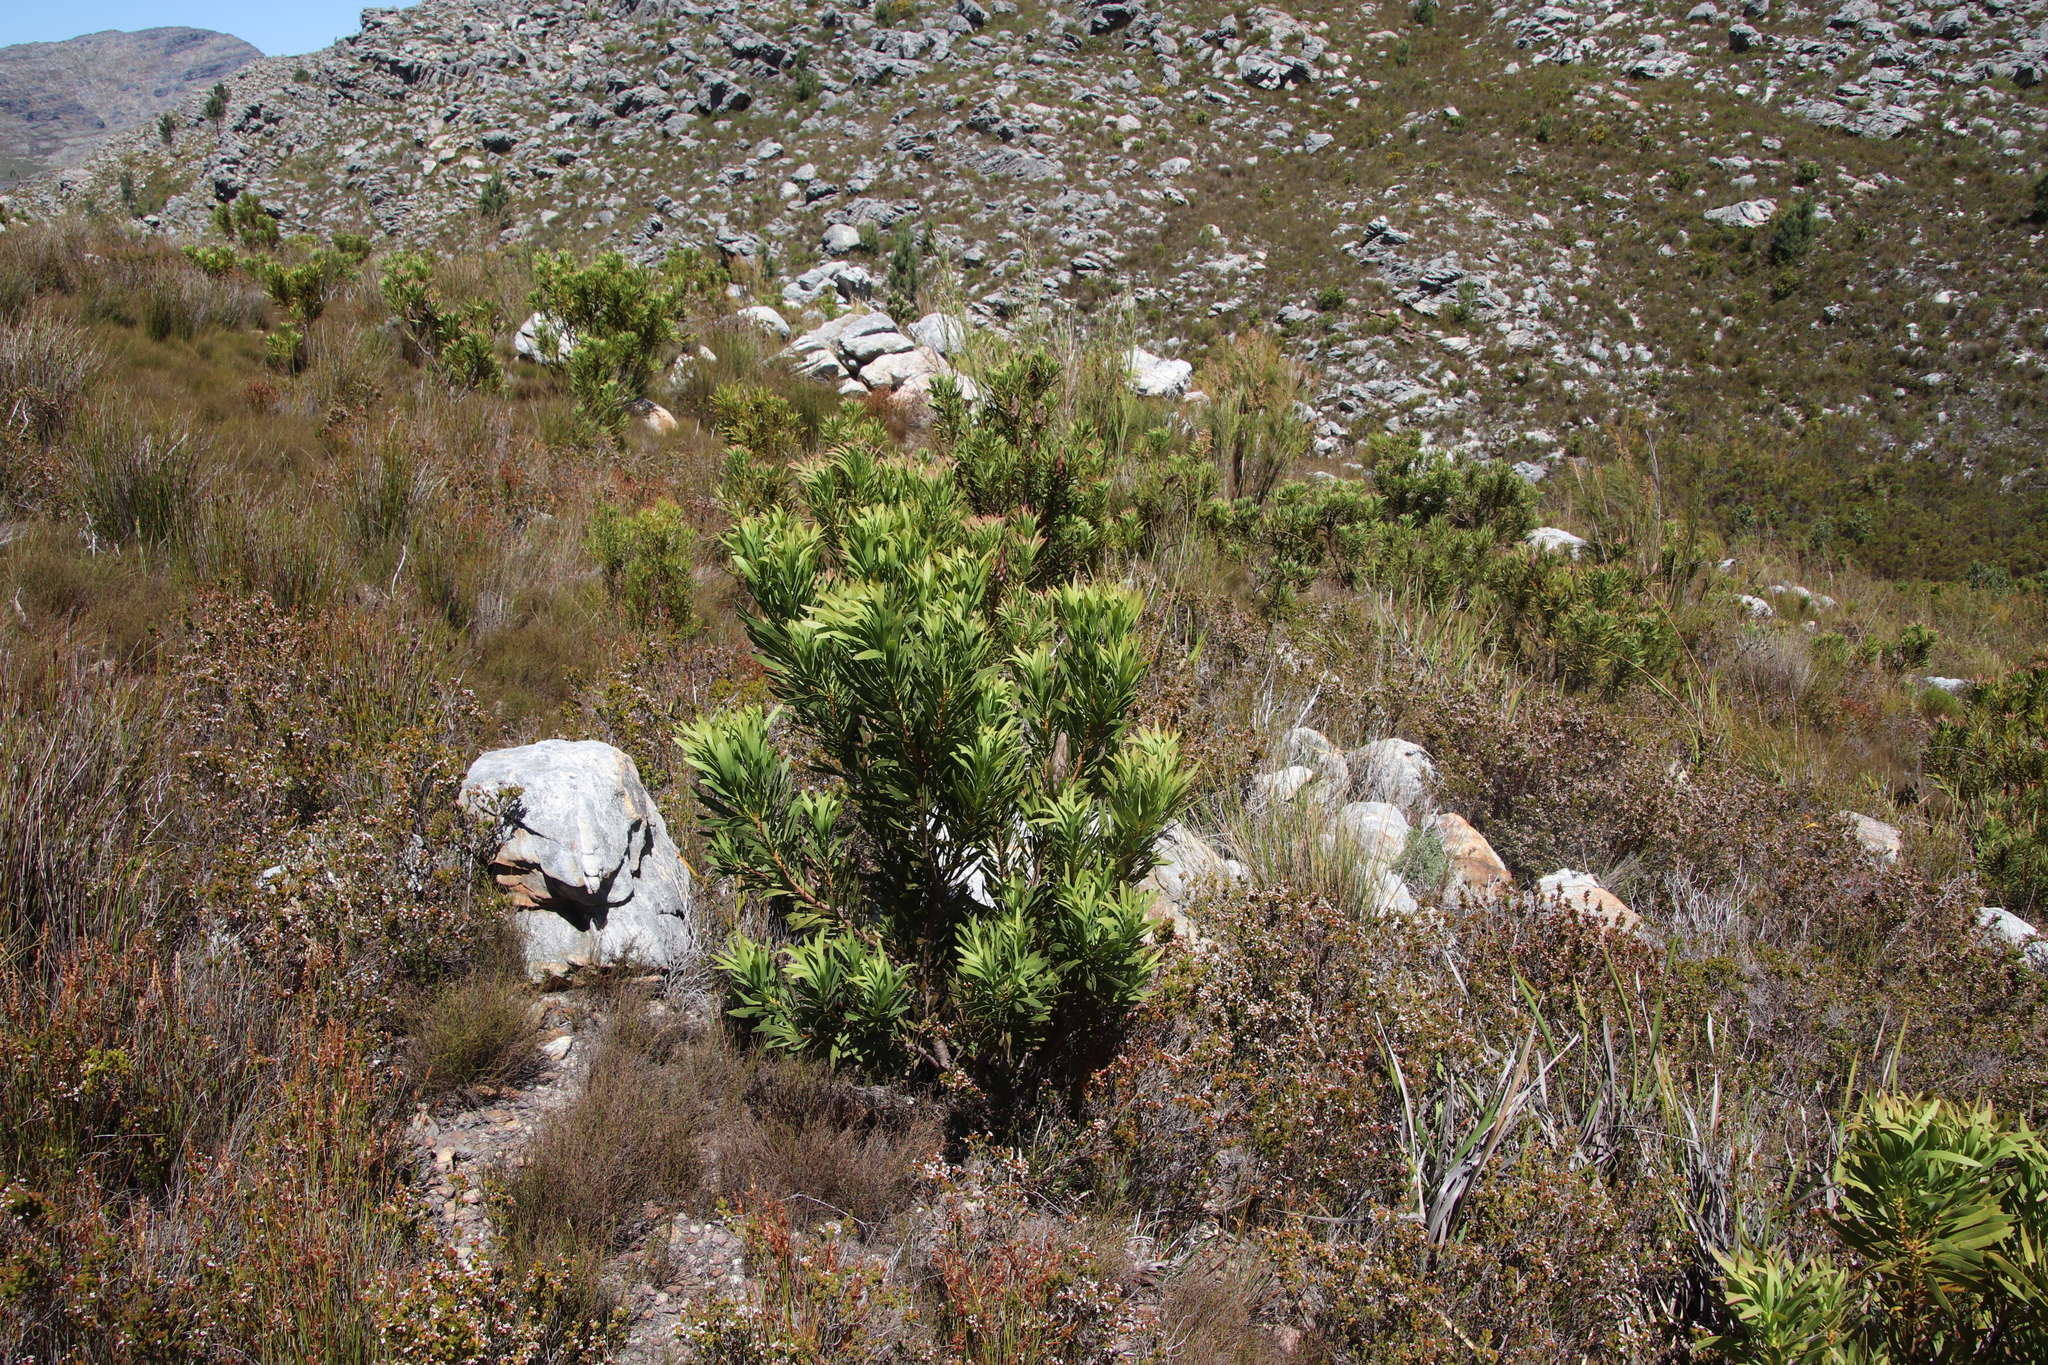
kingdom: Plantae
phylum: Tracheophyta
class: Magnoliopsida
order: Proteales
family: Proteaceae
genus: Protea
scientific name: Protea repens
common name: Sugarbush
